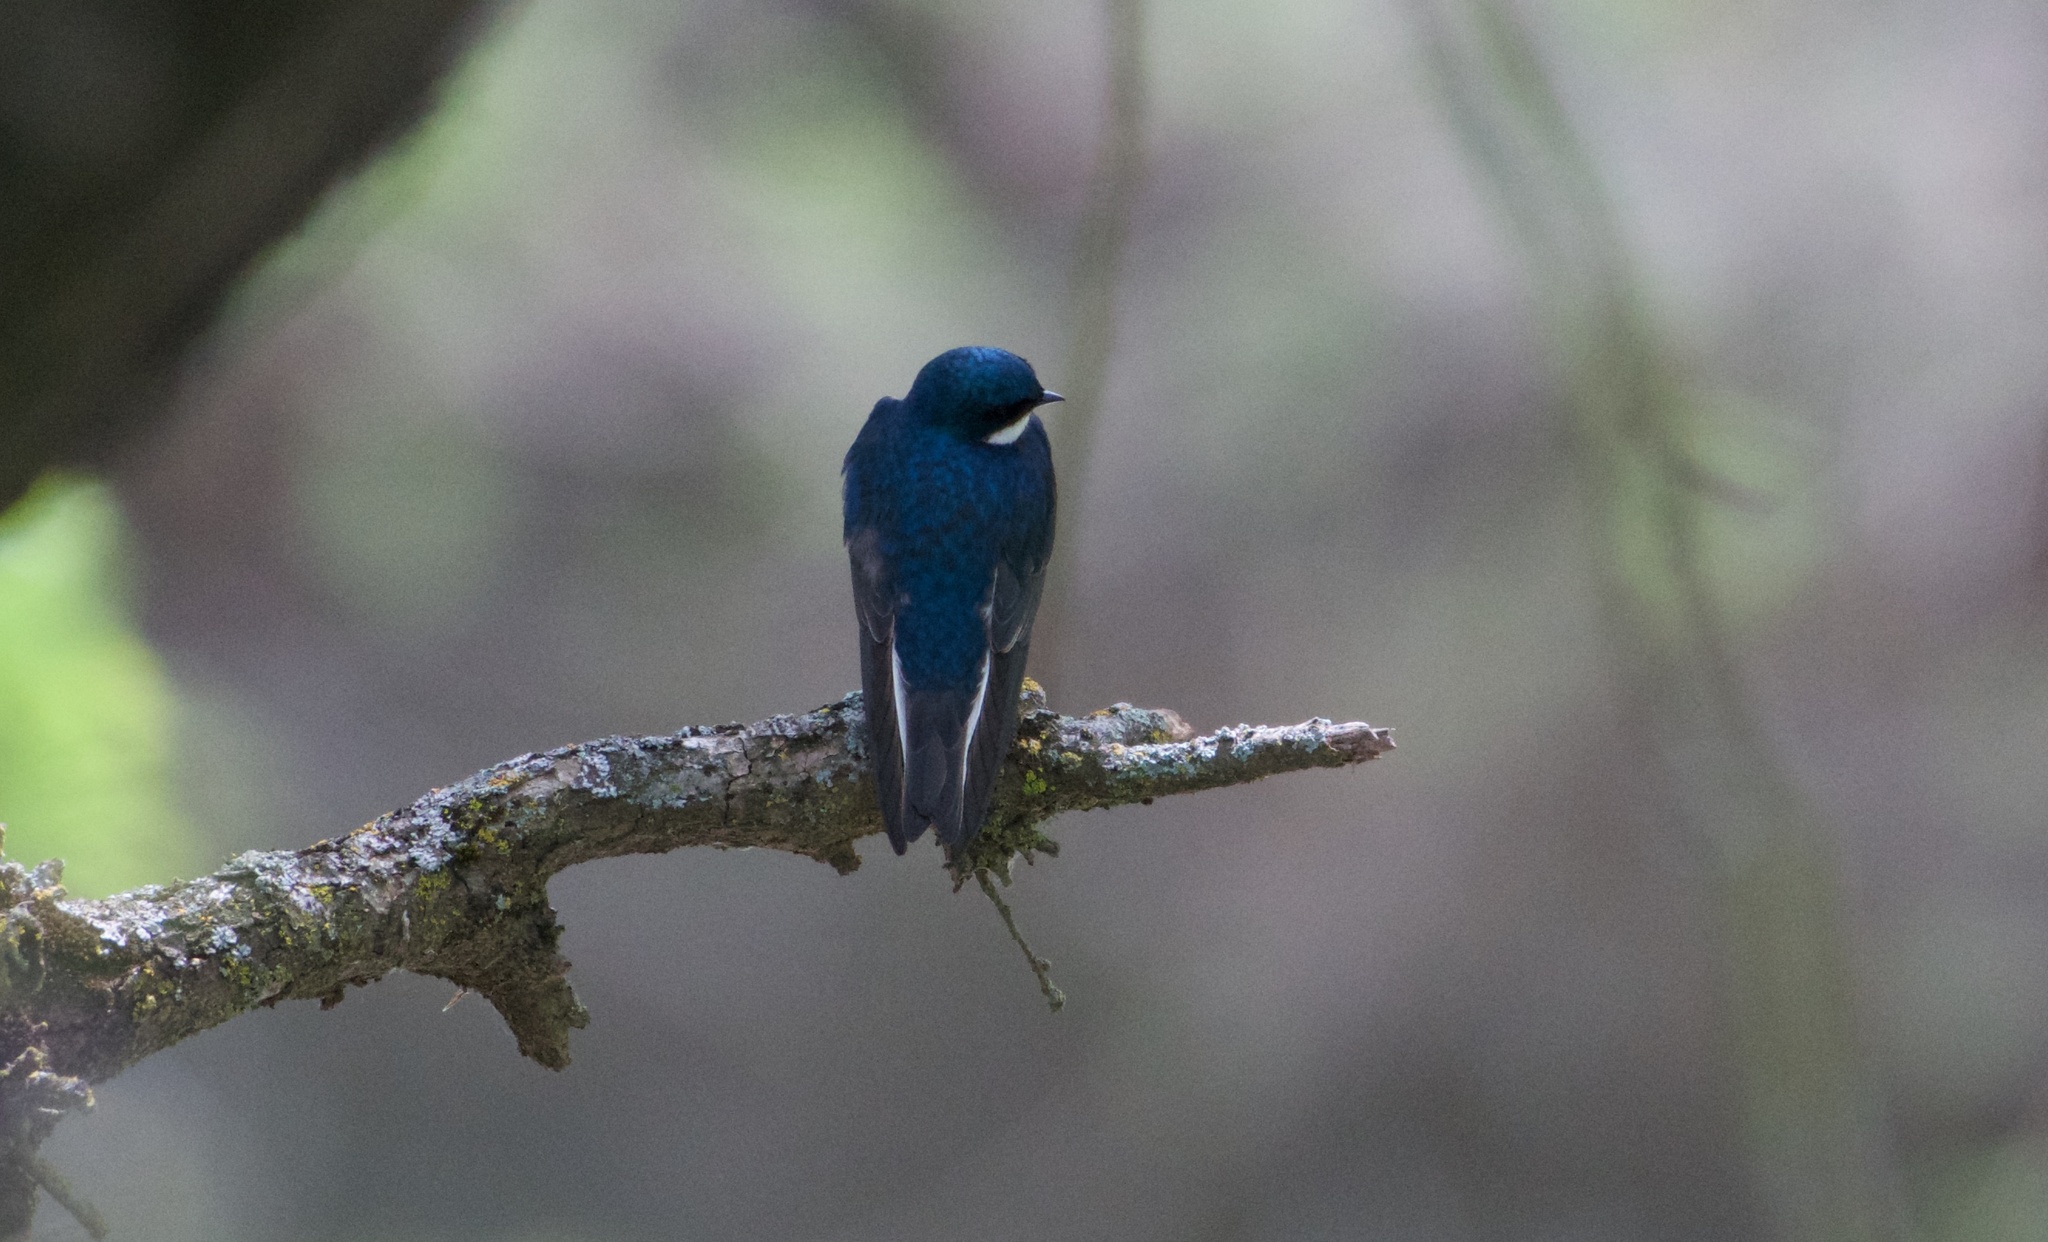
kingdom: Animalia
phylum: Chordata
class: Aves
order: Passeriformes
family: Hirundinidae
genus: Tachycineta
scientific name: Tachycineta bicolor
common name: Tree swallow
